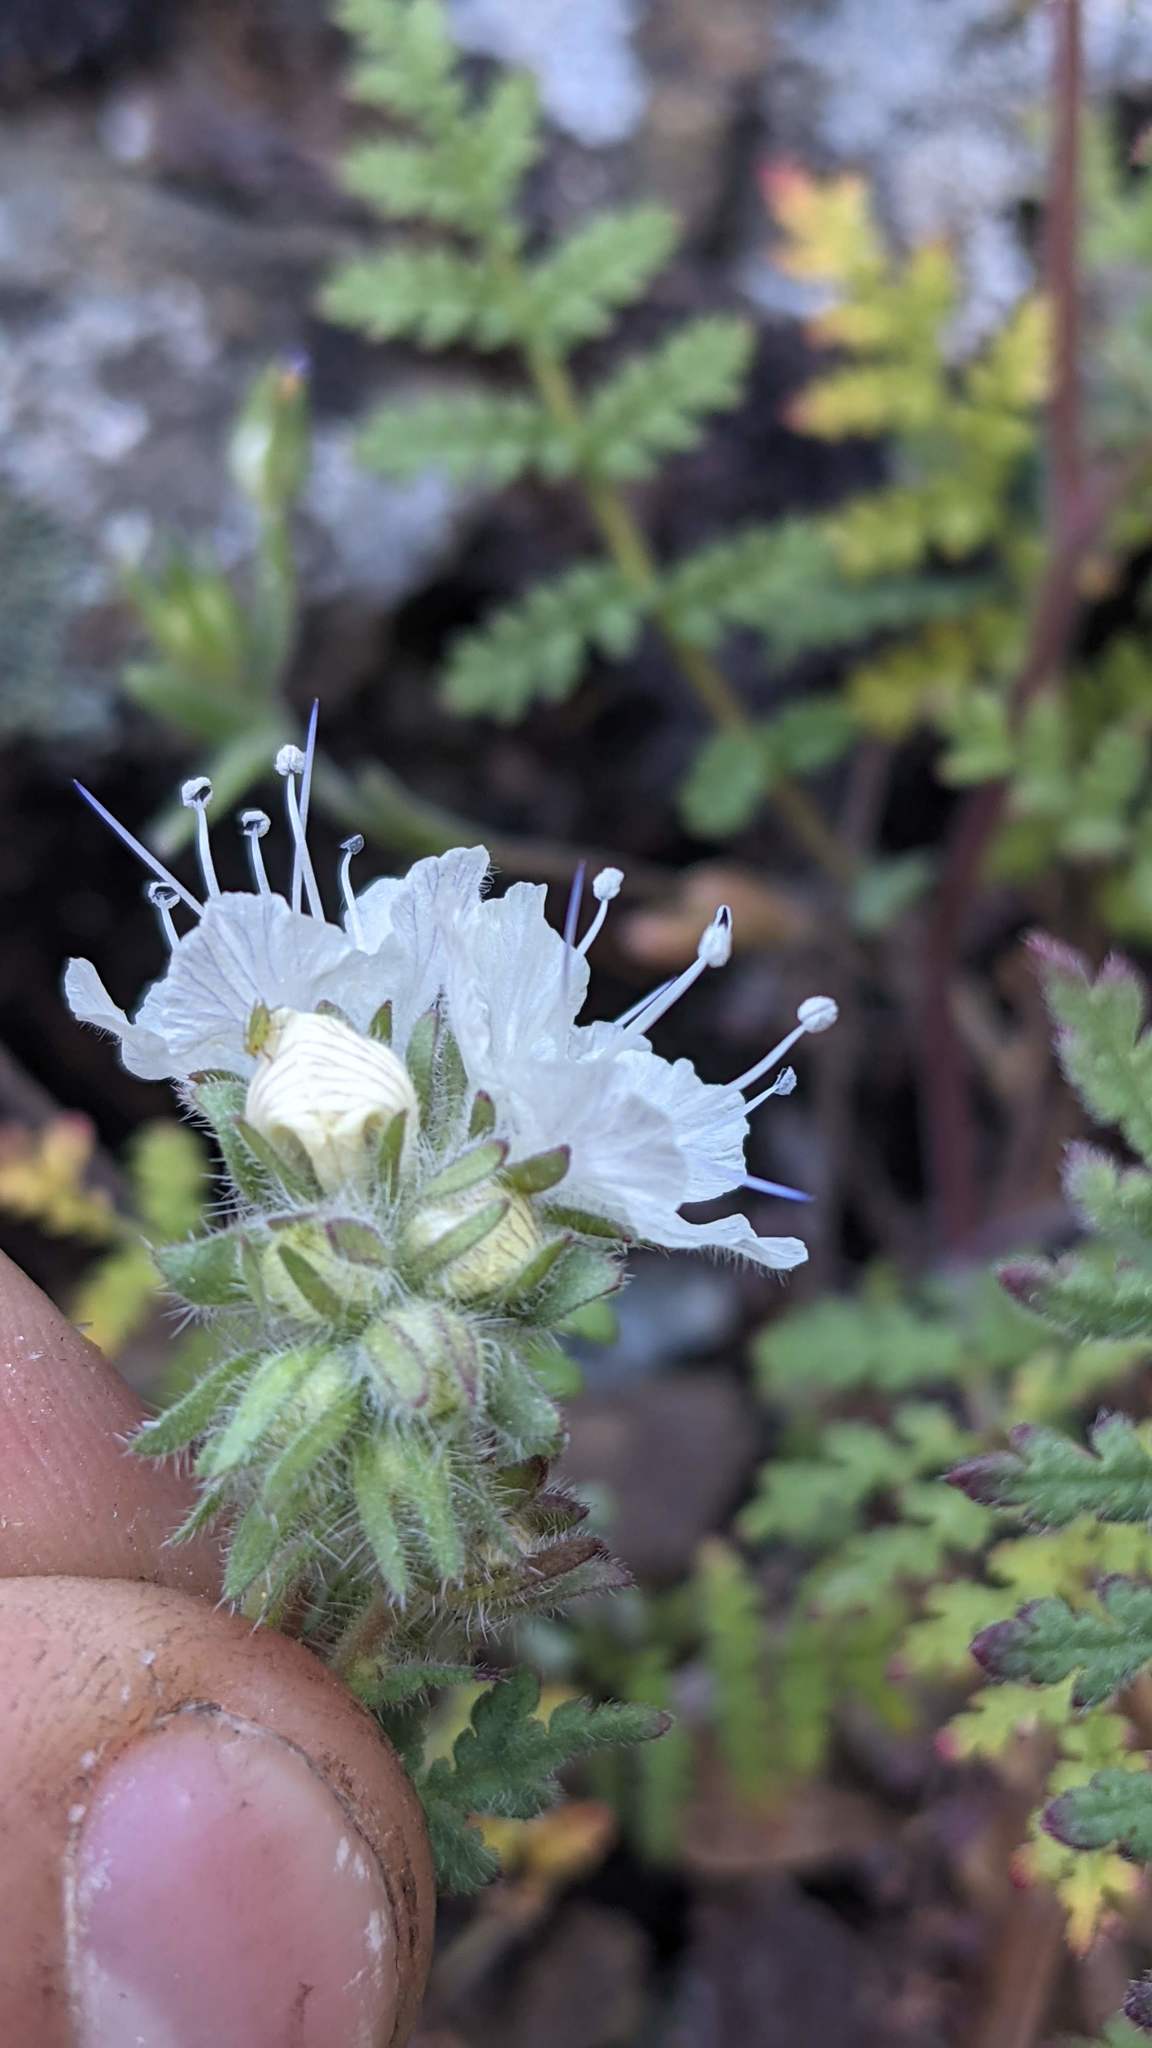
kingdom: Plantae
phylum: Tracheophyta
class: Magnoliopsida
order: Boraginales
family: Hydrophyllaceae
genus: Phacelia
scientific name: Phacelia distans
